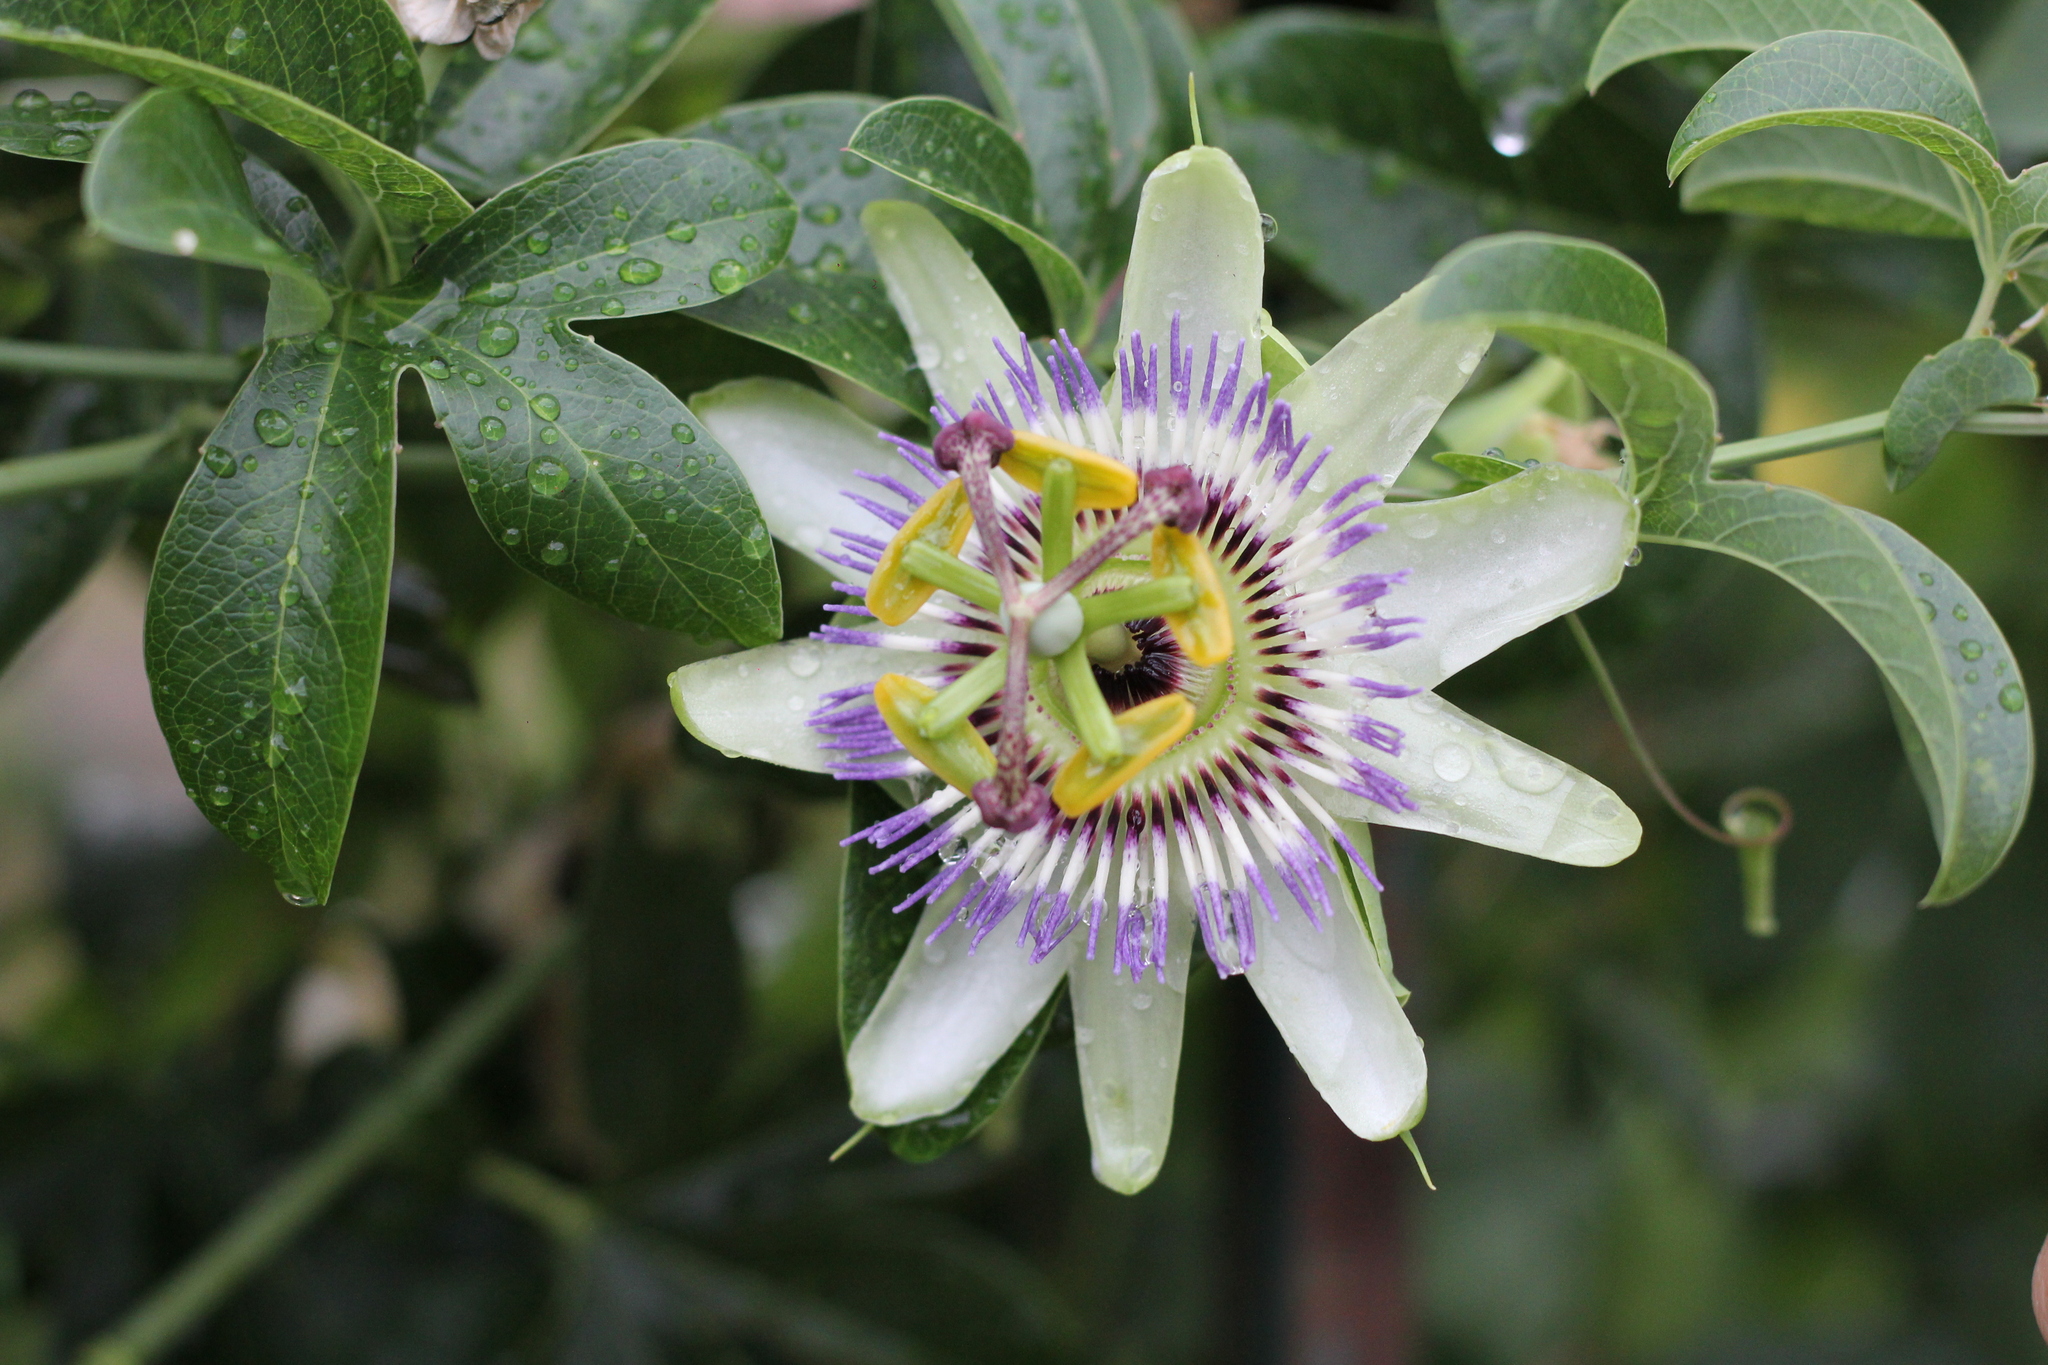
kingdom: Plantae
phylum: Tracheophyta
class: Magnoliopsida
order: Malpighiales
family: Passifloraceae
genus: Passiflora
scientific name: Passiflora caerulea
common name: Blue passionflower
